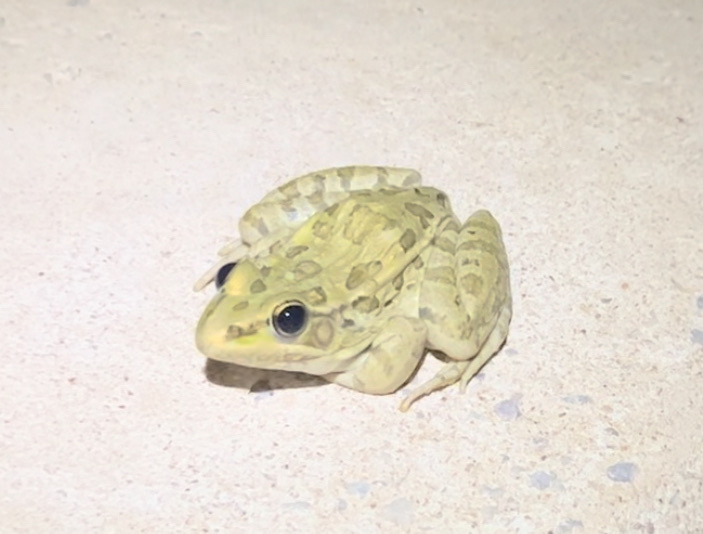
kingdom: Animalia
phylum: Chordata
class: Amphibia
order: Anura
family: Ranidae
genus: Lithobates
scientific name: Lithobates berlandieri
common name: Rio grande leopard frog
